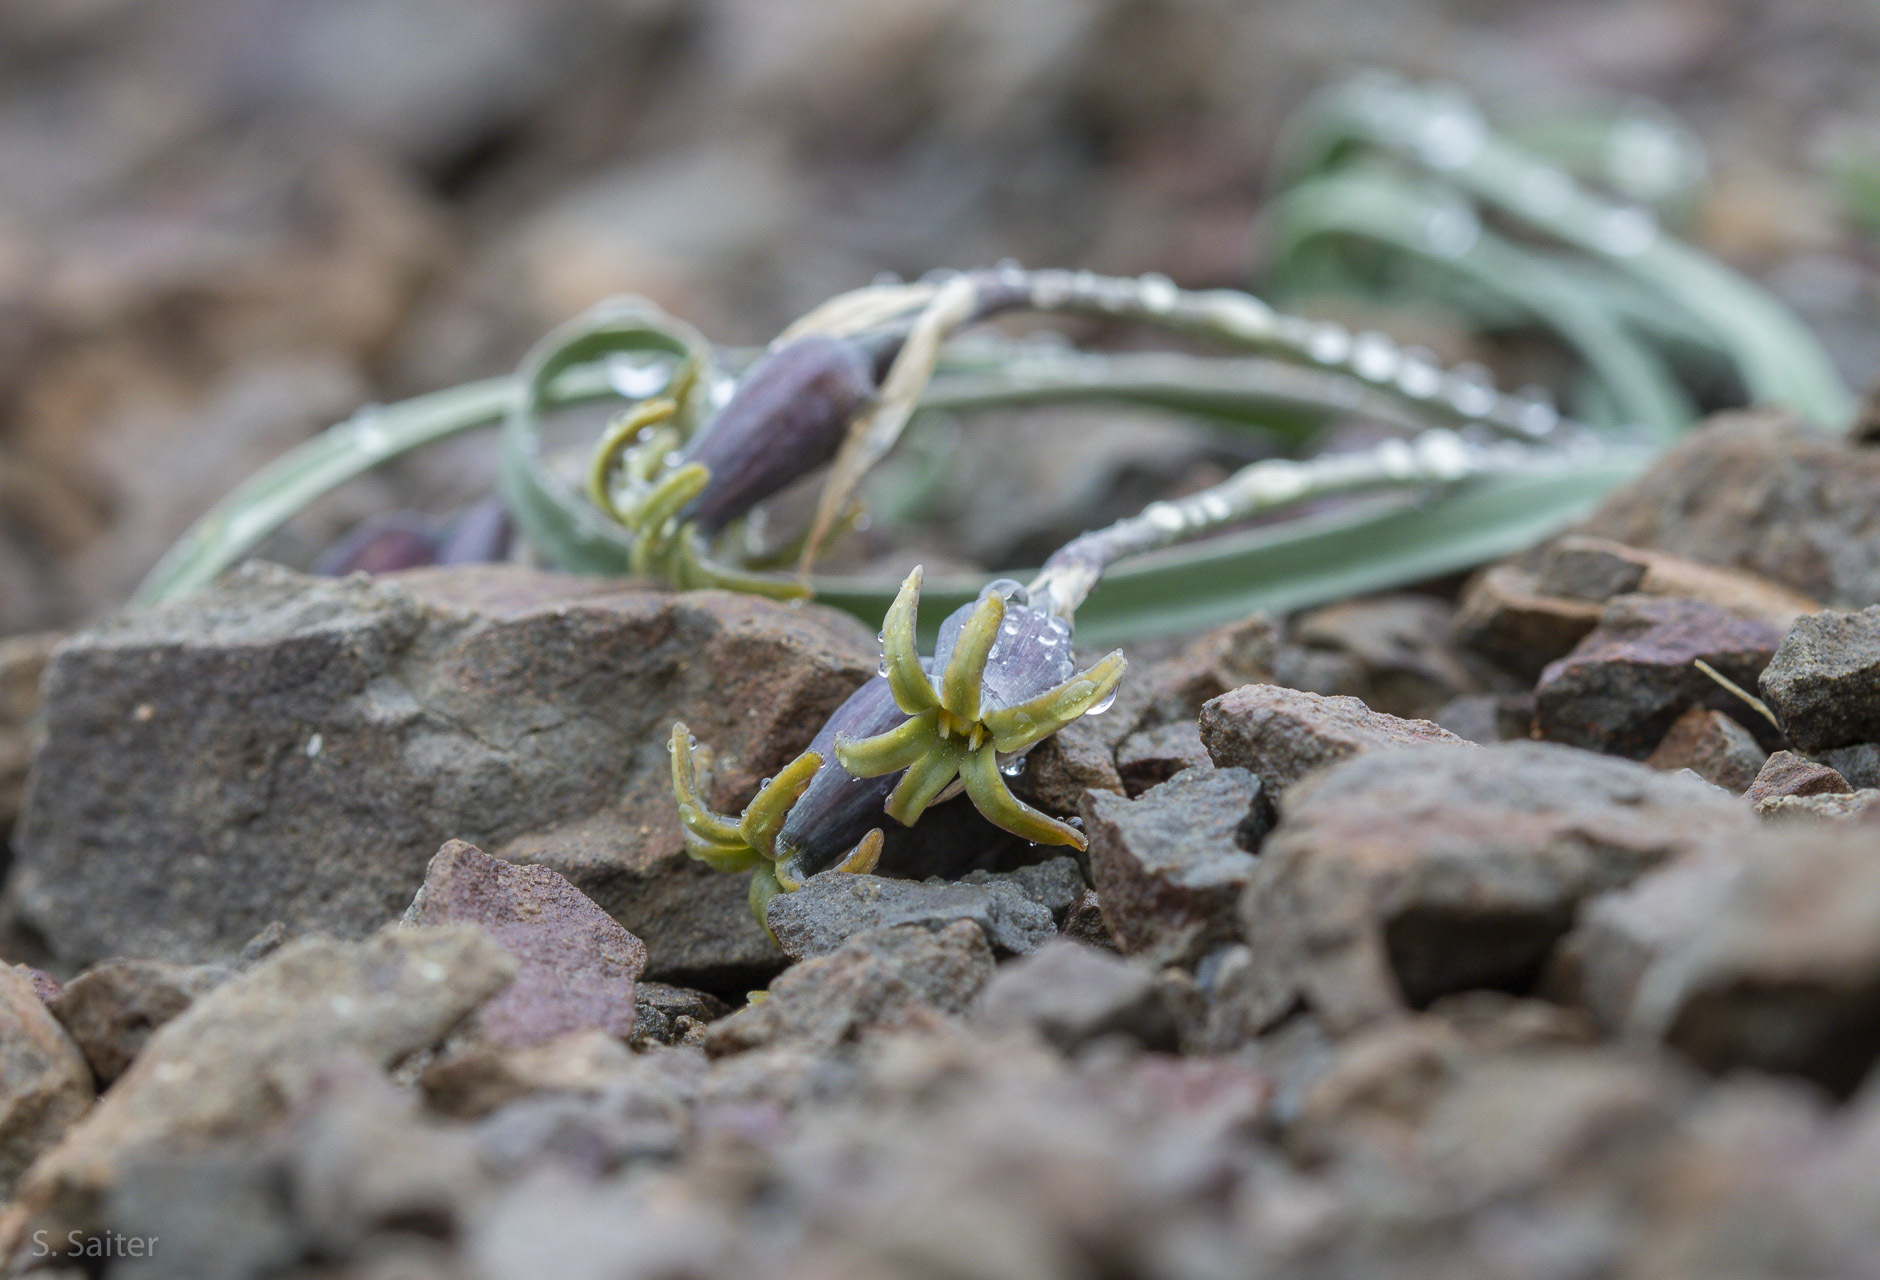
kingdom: Plantae
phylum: Tracheophyta
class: Liliopsida
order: Asparagales
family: Amaryllidaceae
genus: Tristagma
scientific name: Tristagma nivale
